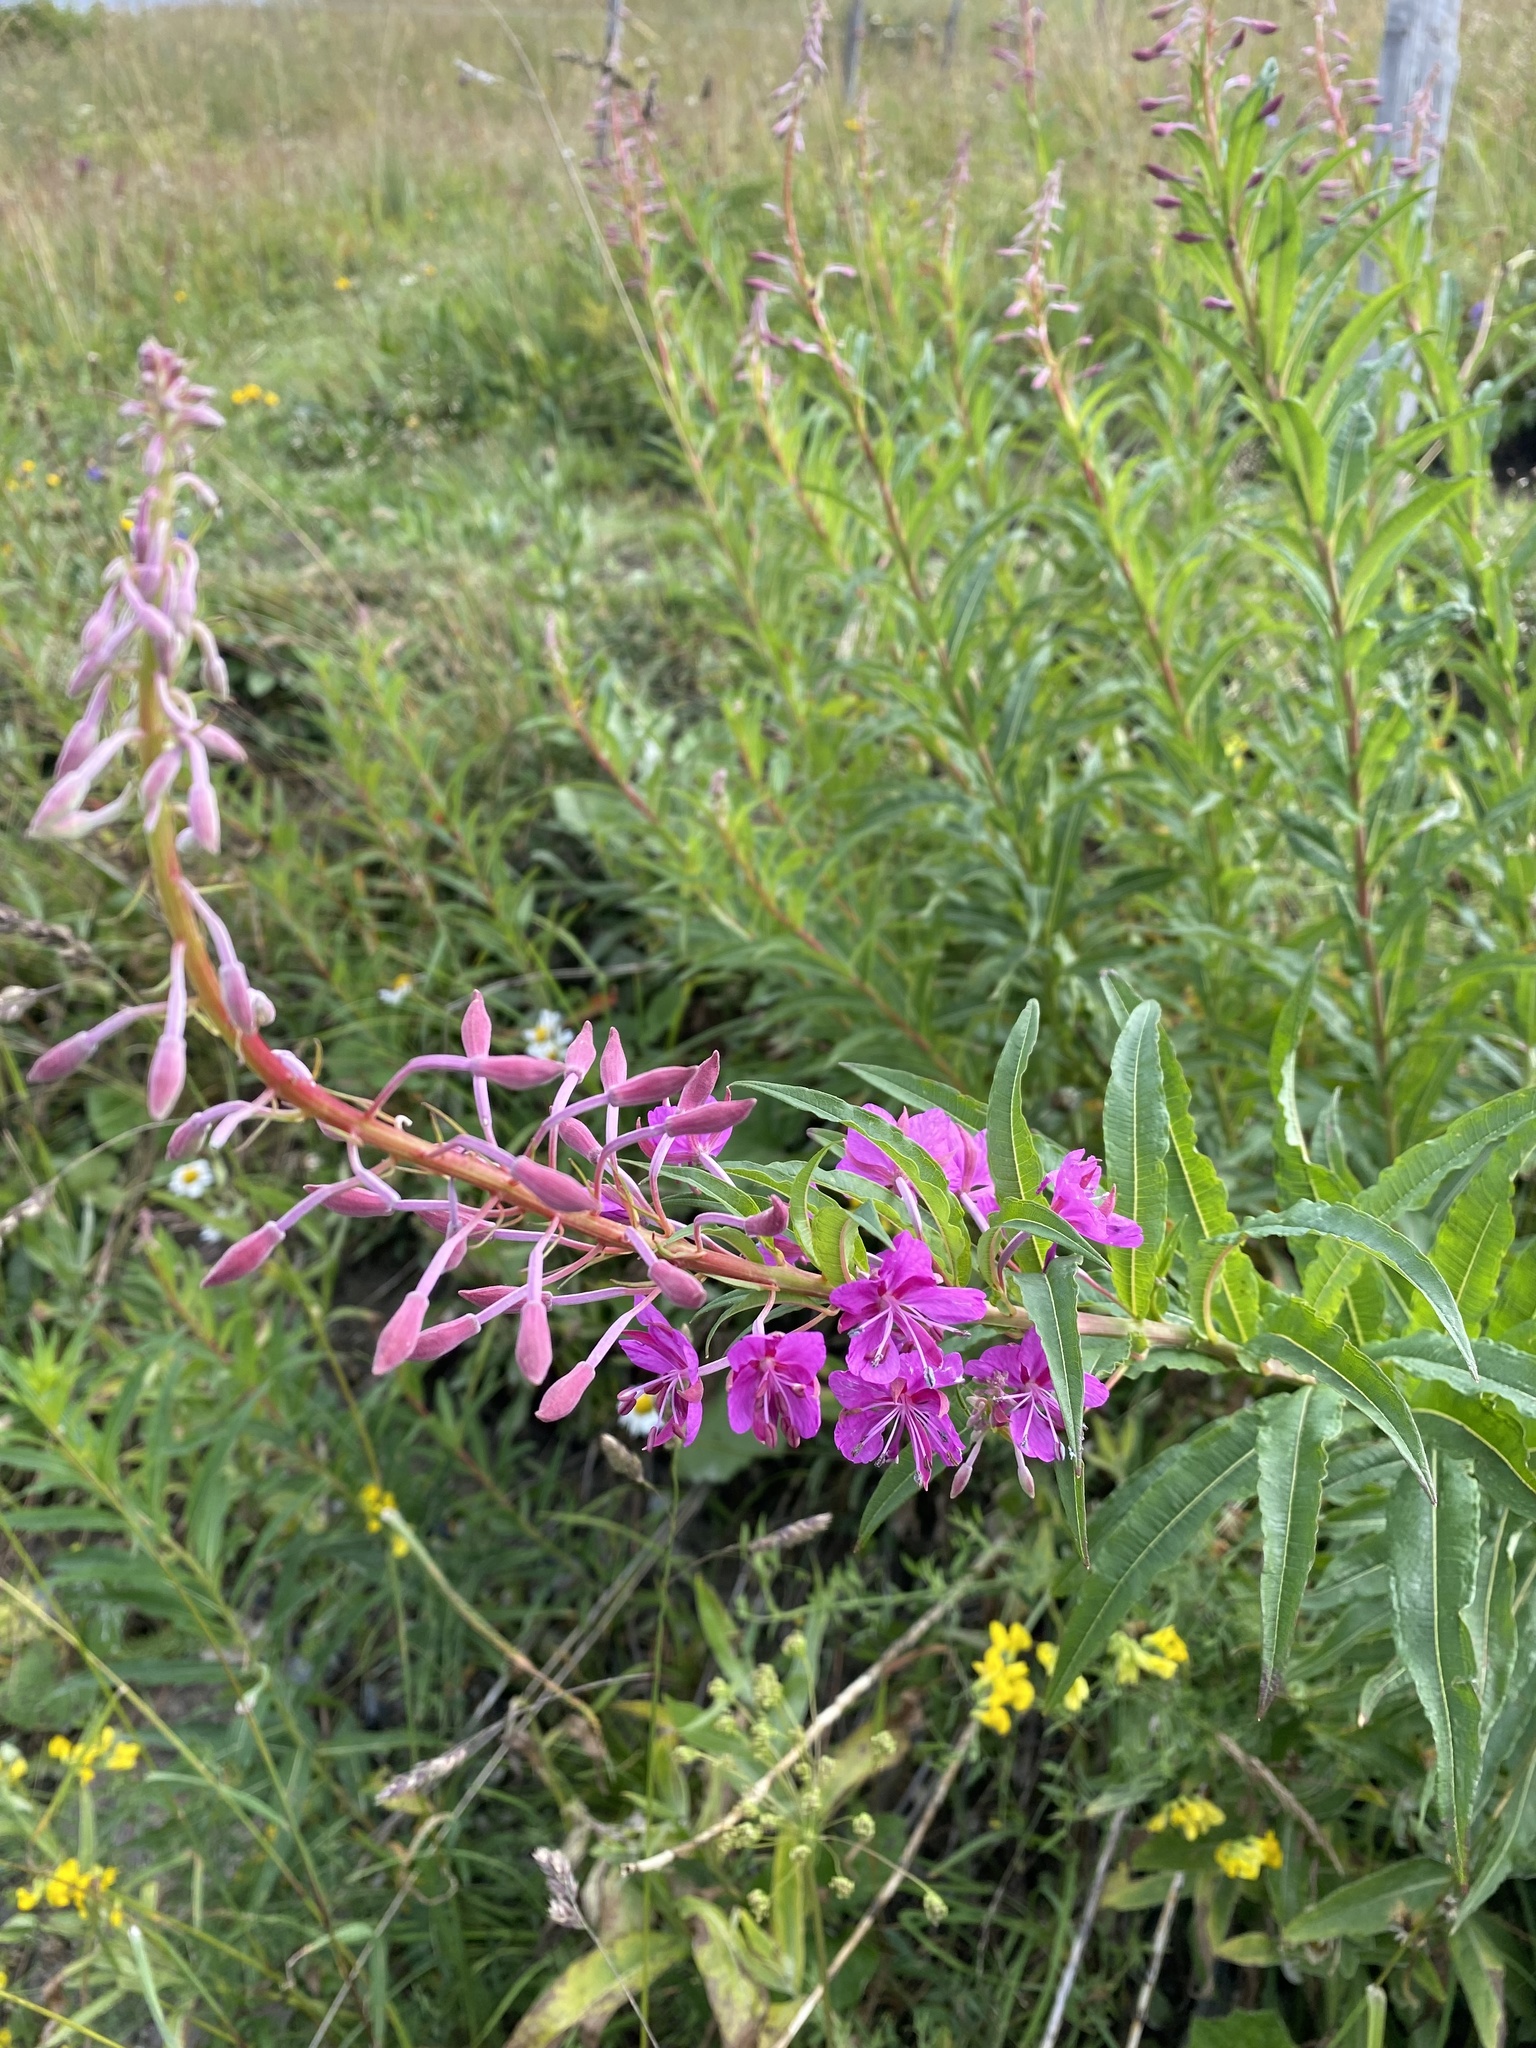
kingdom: Plantae
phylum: Tracheophyta
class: Magnoliopsida
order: Myrtales
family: Onagraceae
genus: Chamaenerion
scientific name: Chamaenerion angustifolium
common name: Fireweed
